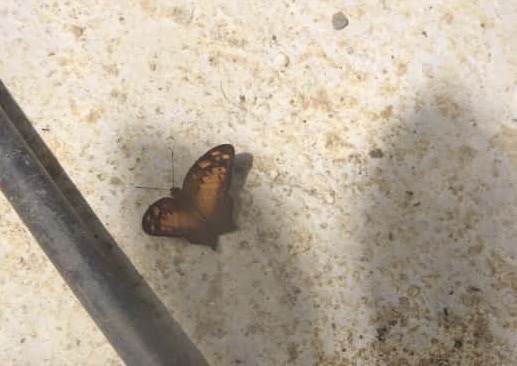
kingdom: Animalia
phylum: Arthropoda
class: Insecta
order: Lepidoptera
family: Nymphalidae
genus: Vagrans
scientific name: Vagrans sinha
